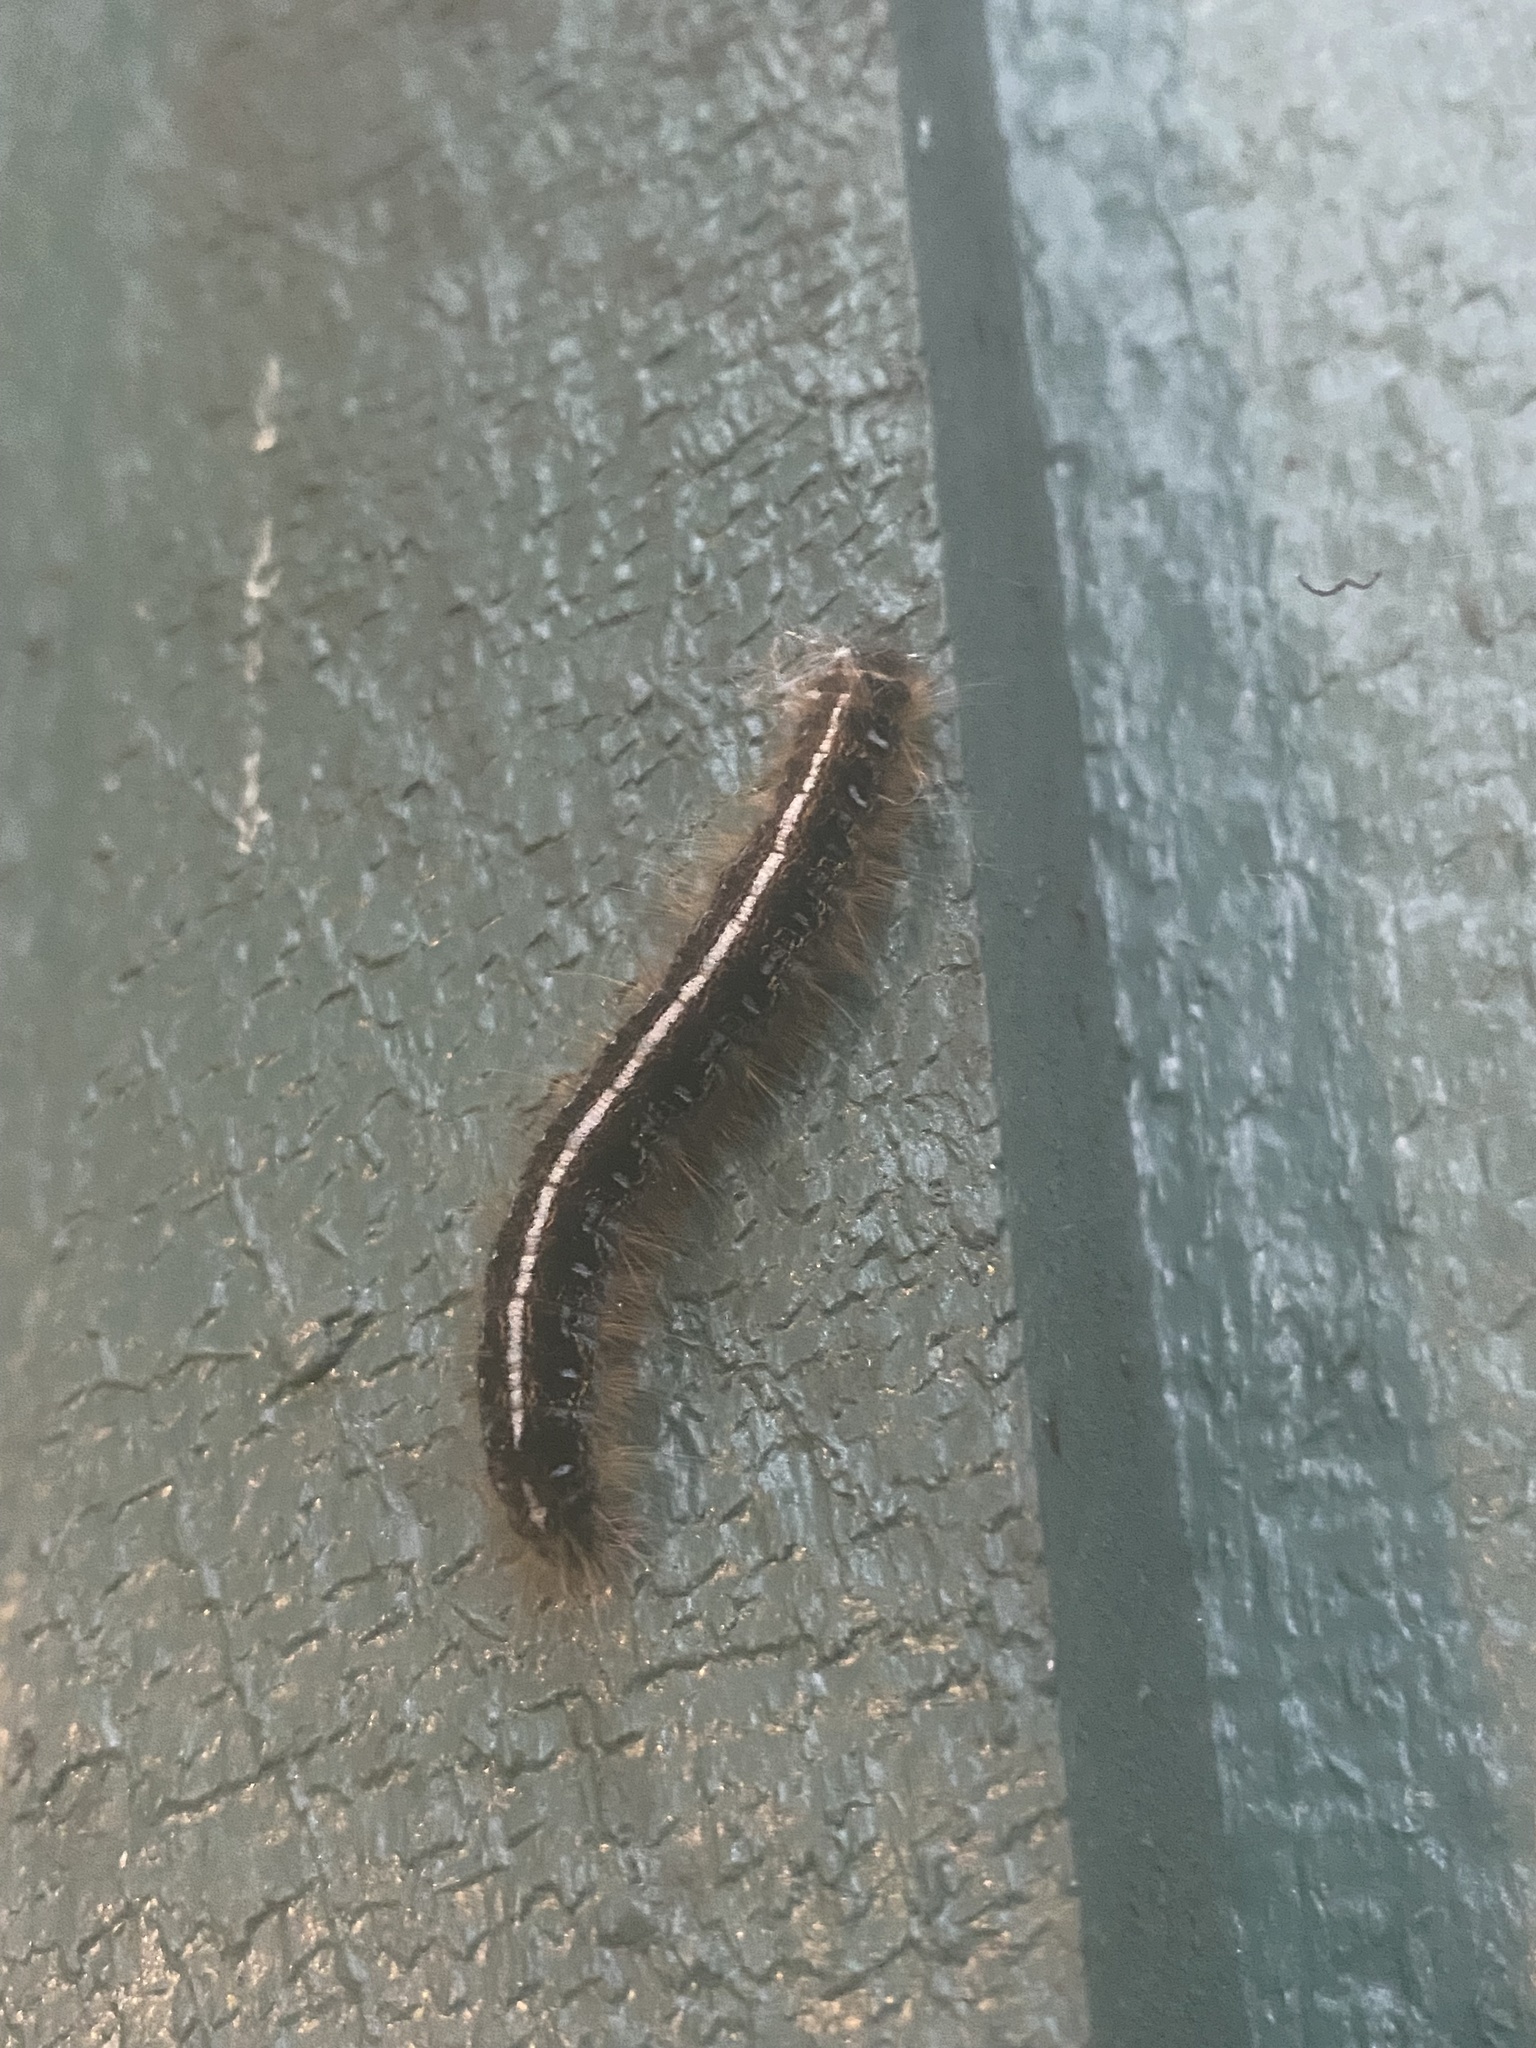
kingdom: Animalia
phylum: Arthropoda
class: Insecta
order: Lepidoptera
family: Lasiocampidae
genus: Malacosoma
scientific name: Malacosoma americana
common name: Eastern tent caterpillar moth
